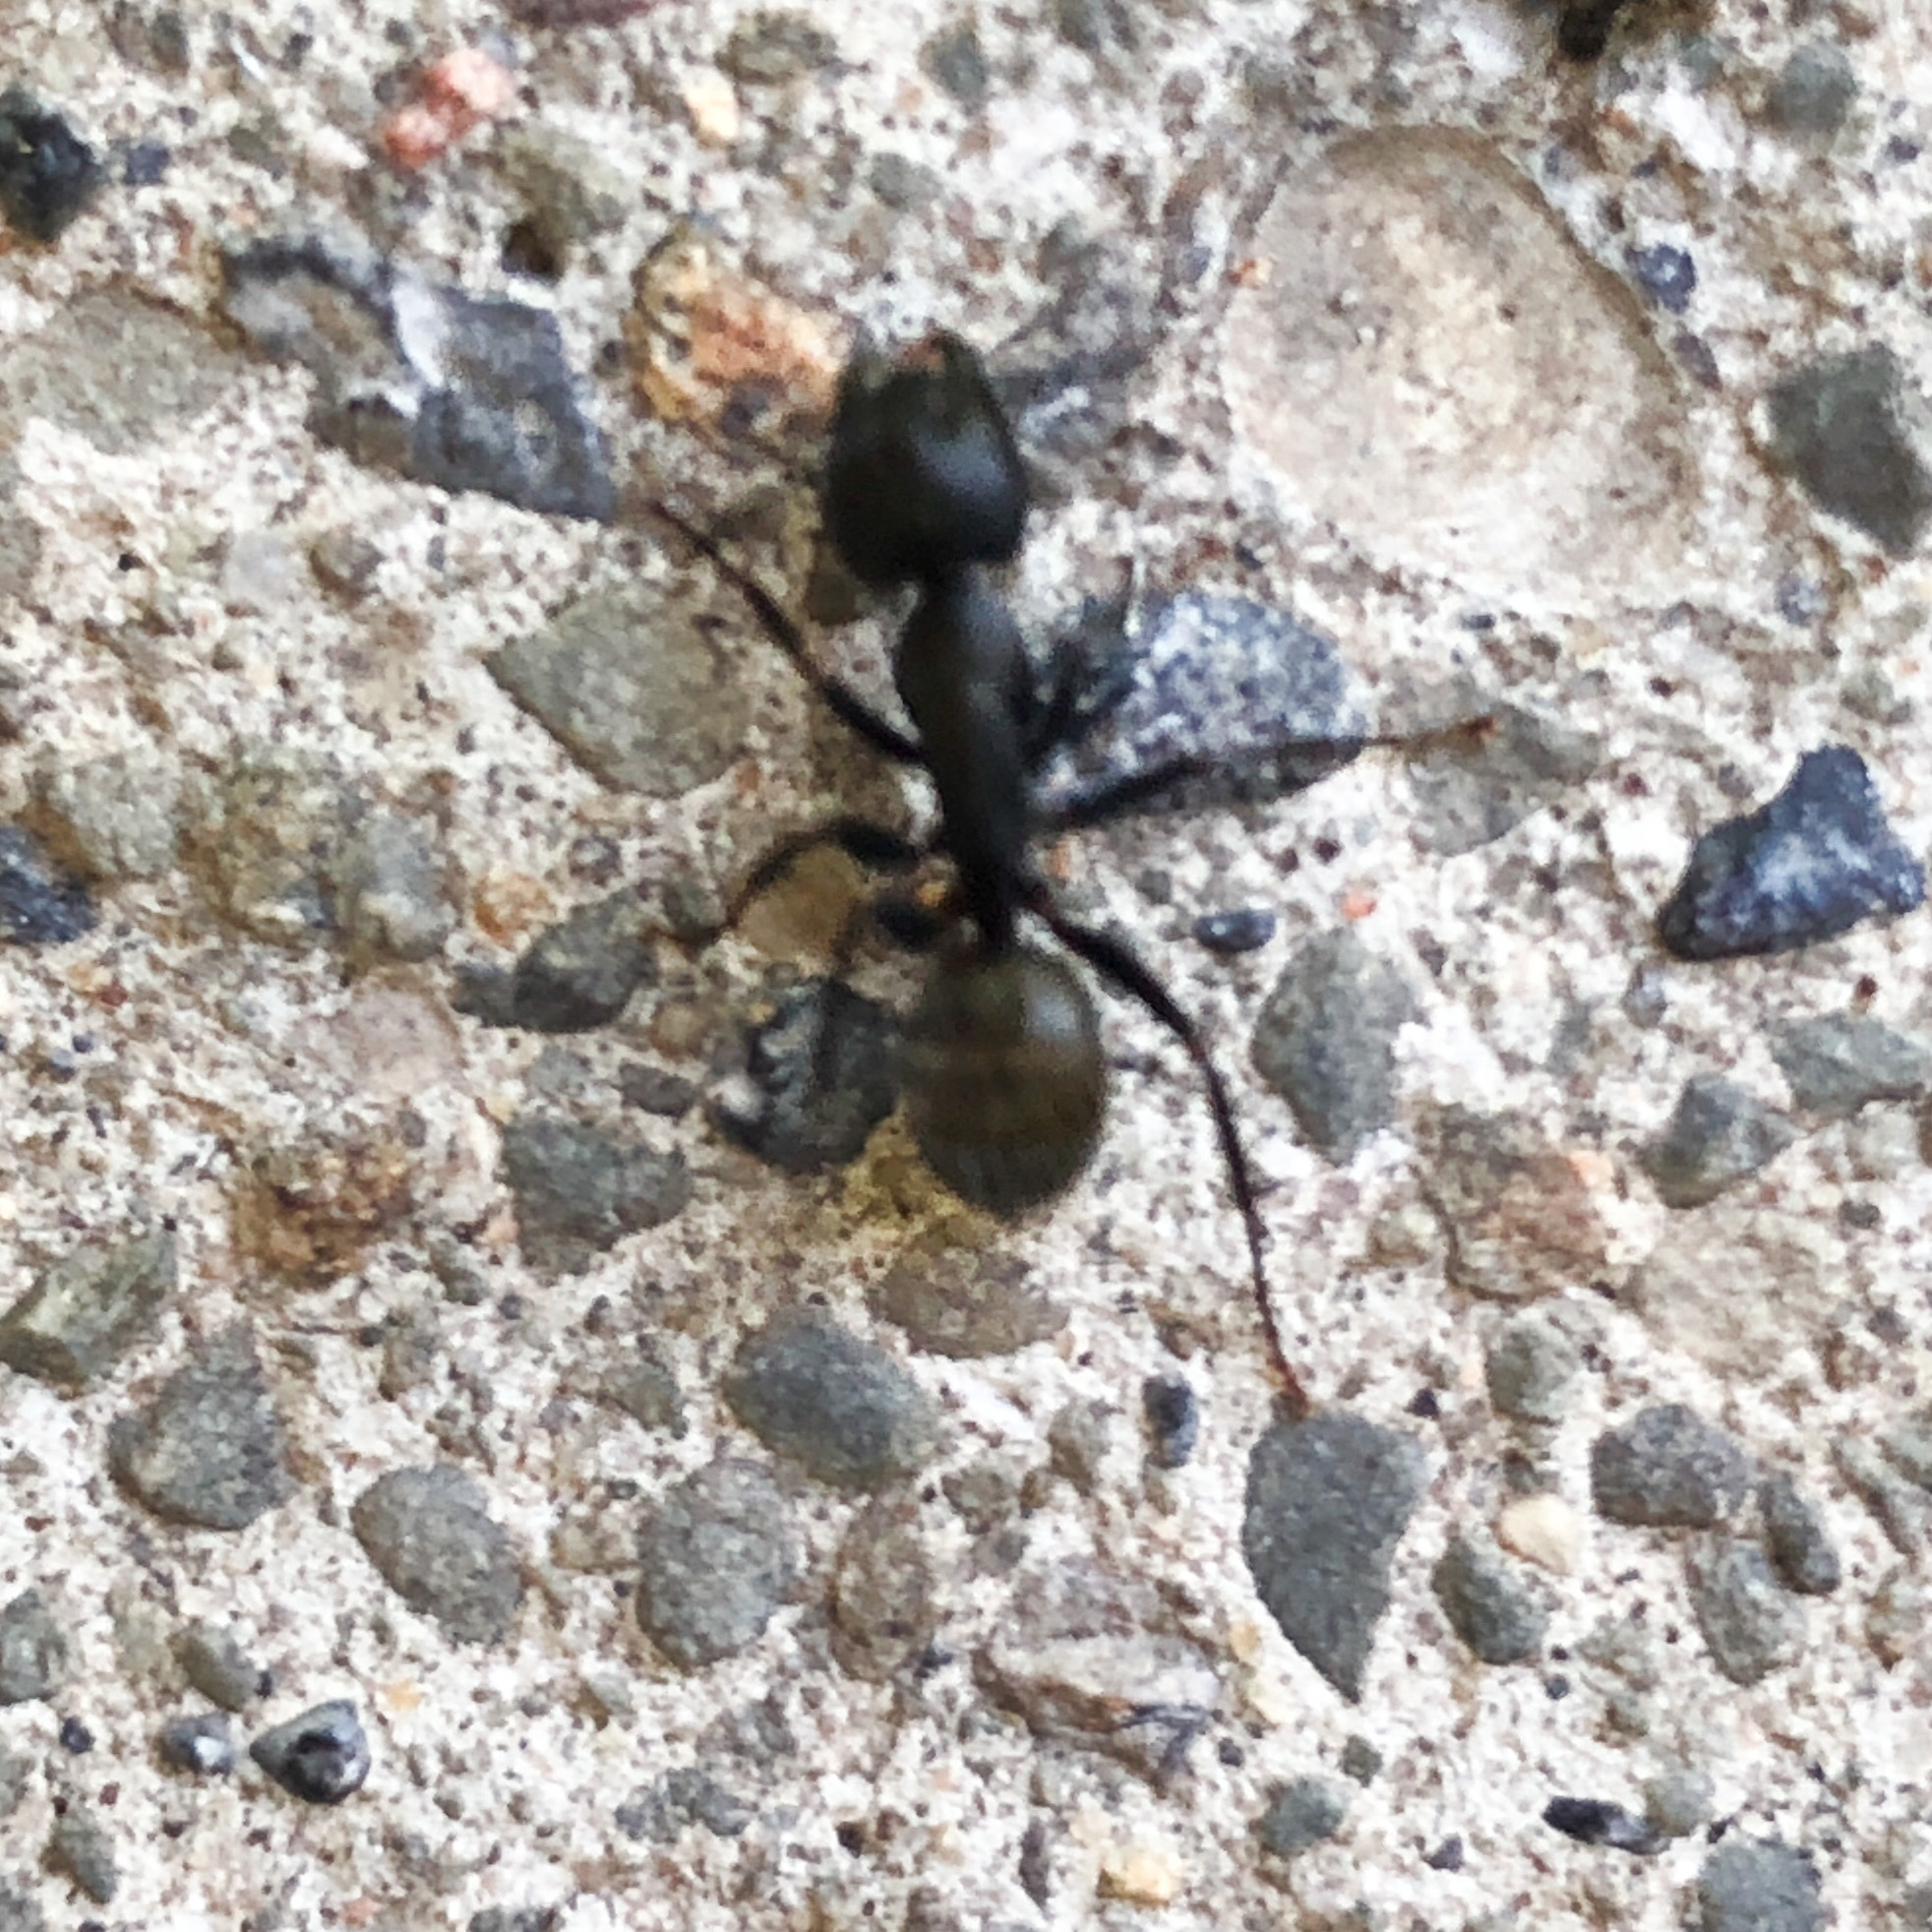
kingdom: Animalia
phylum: Arthropoda
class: Insecta
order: Hymenoptera
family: Formicidae
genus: Camponotus
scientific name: Camponotus pennsylvanicus
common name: Black carpenter ant
